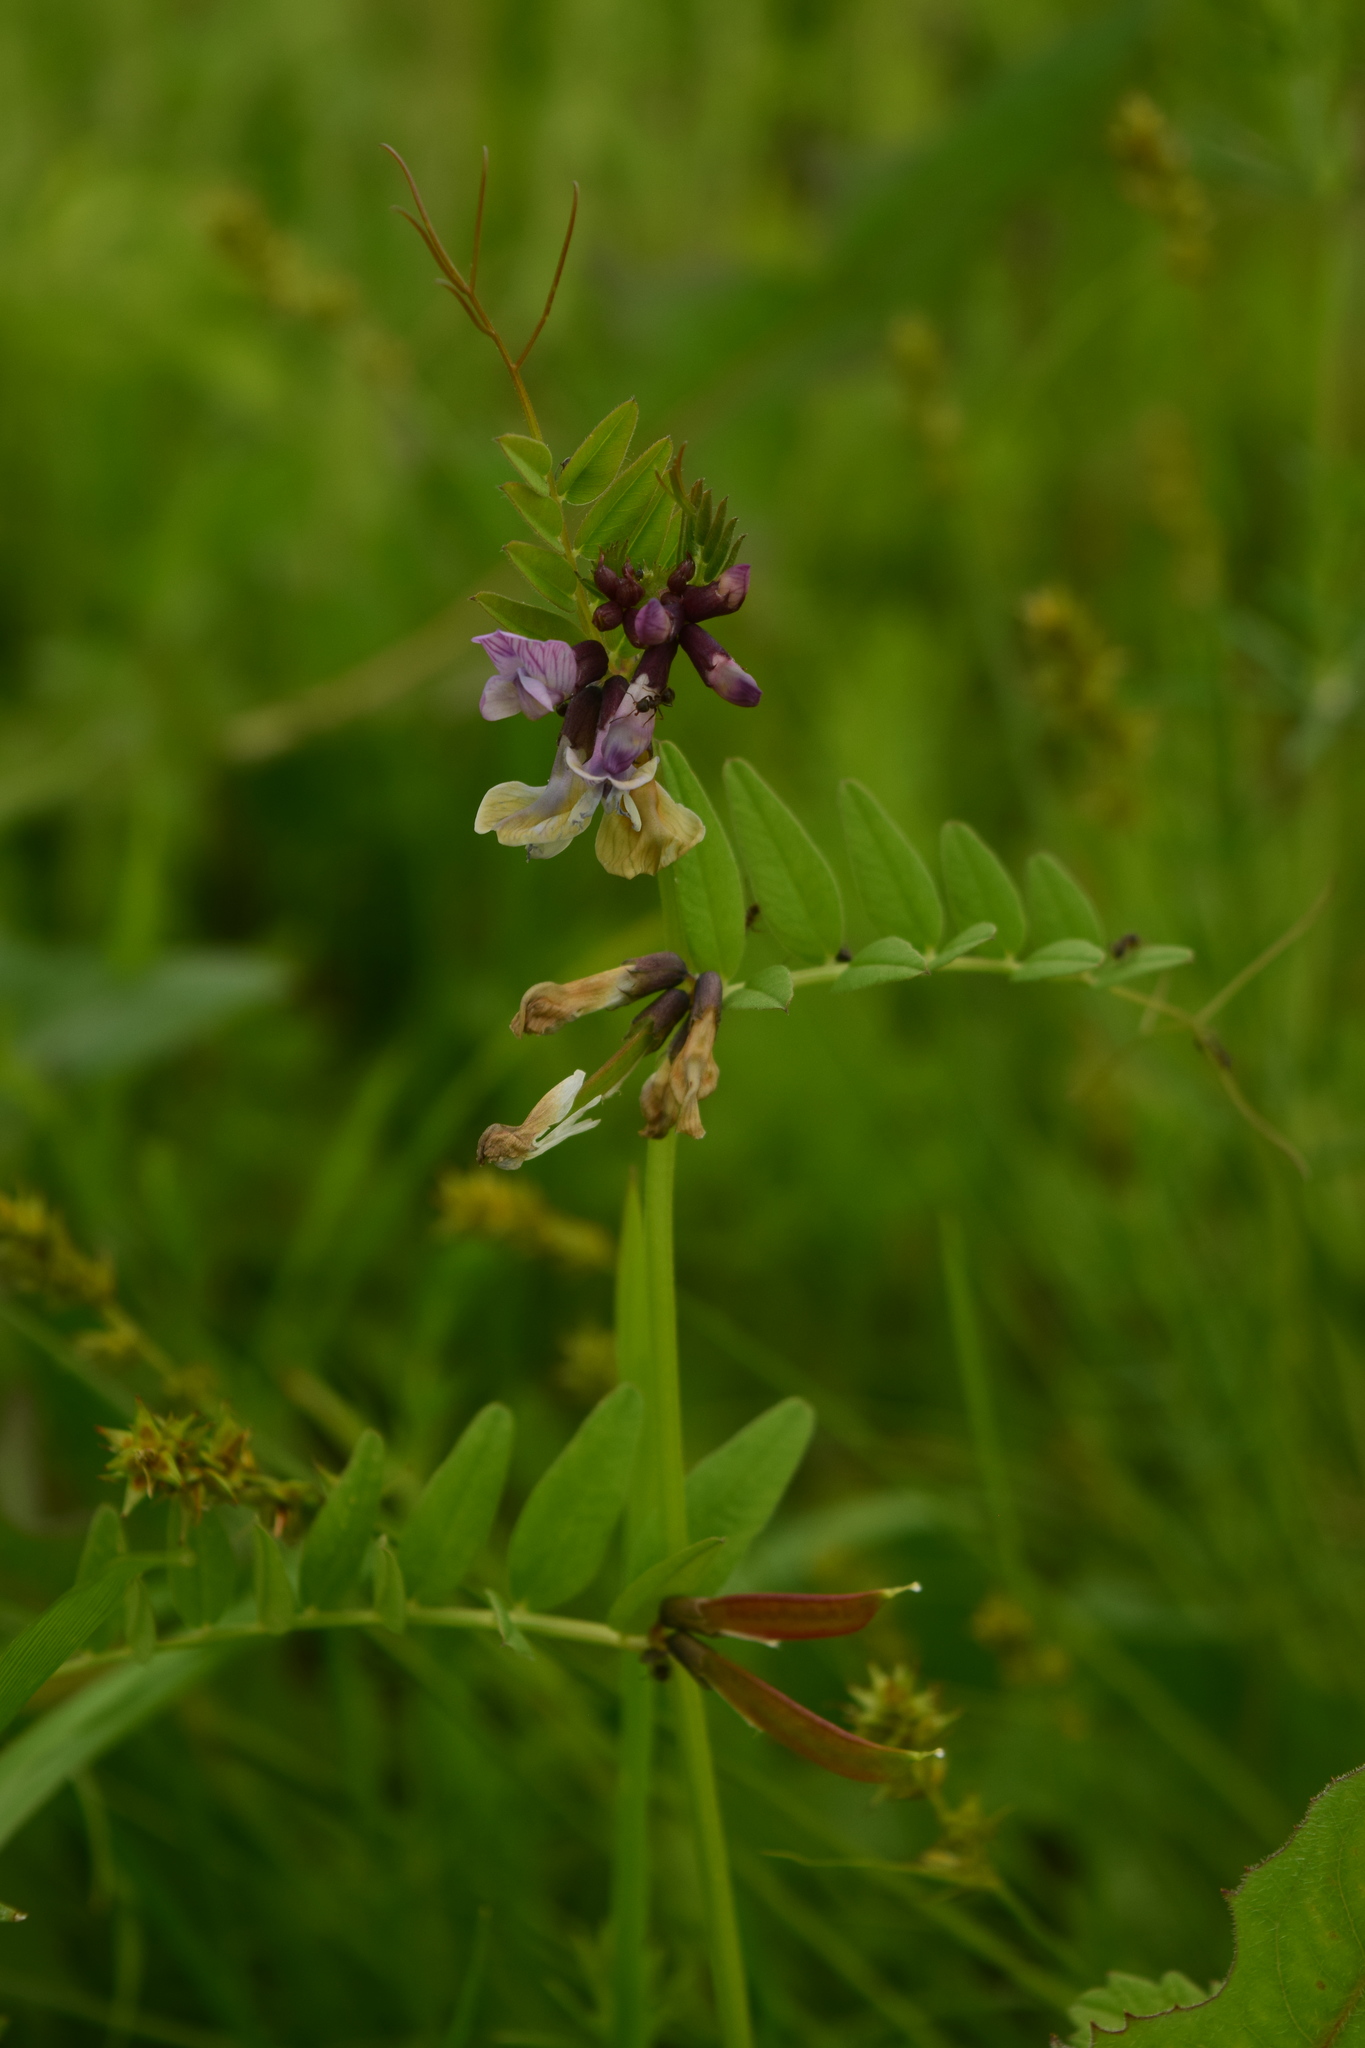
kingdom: Plantae
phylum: Tracheophyta
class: Magnoliopsida
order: Fabales
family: Fabaceae
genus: Vicia
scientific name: Vicia sepium
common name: Bush vetch
